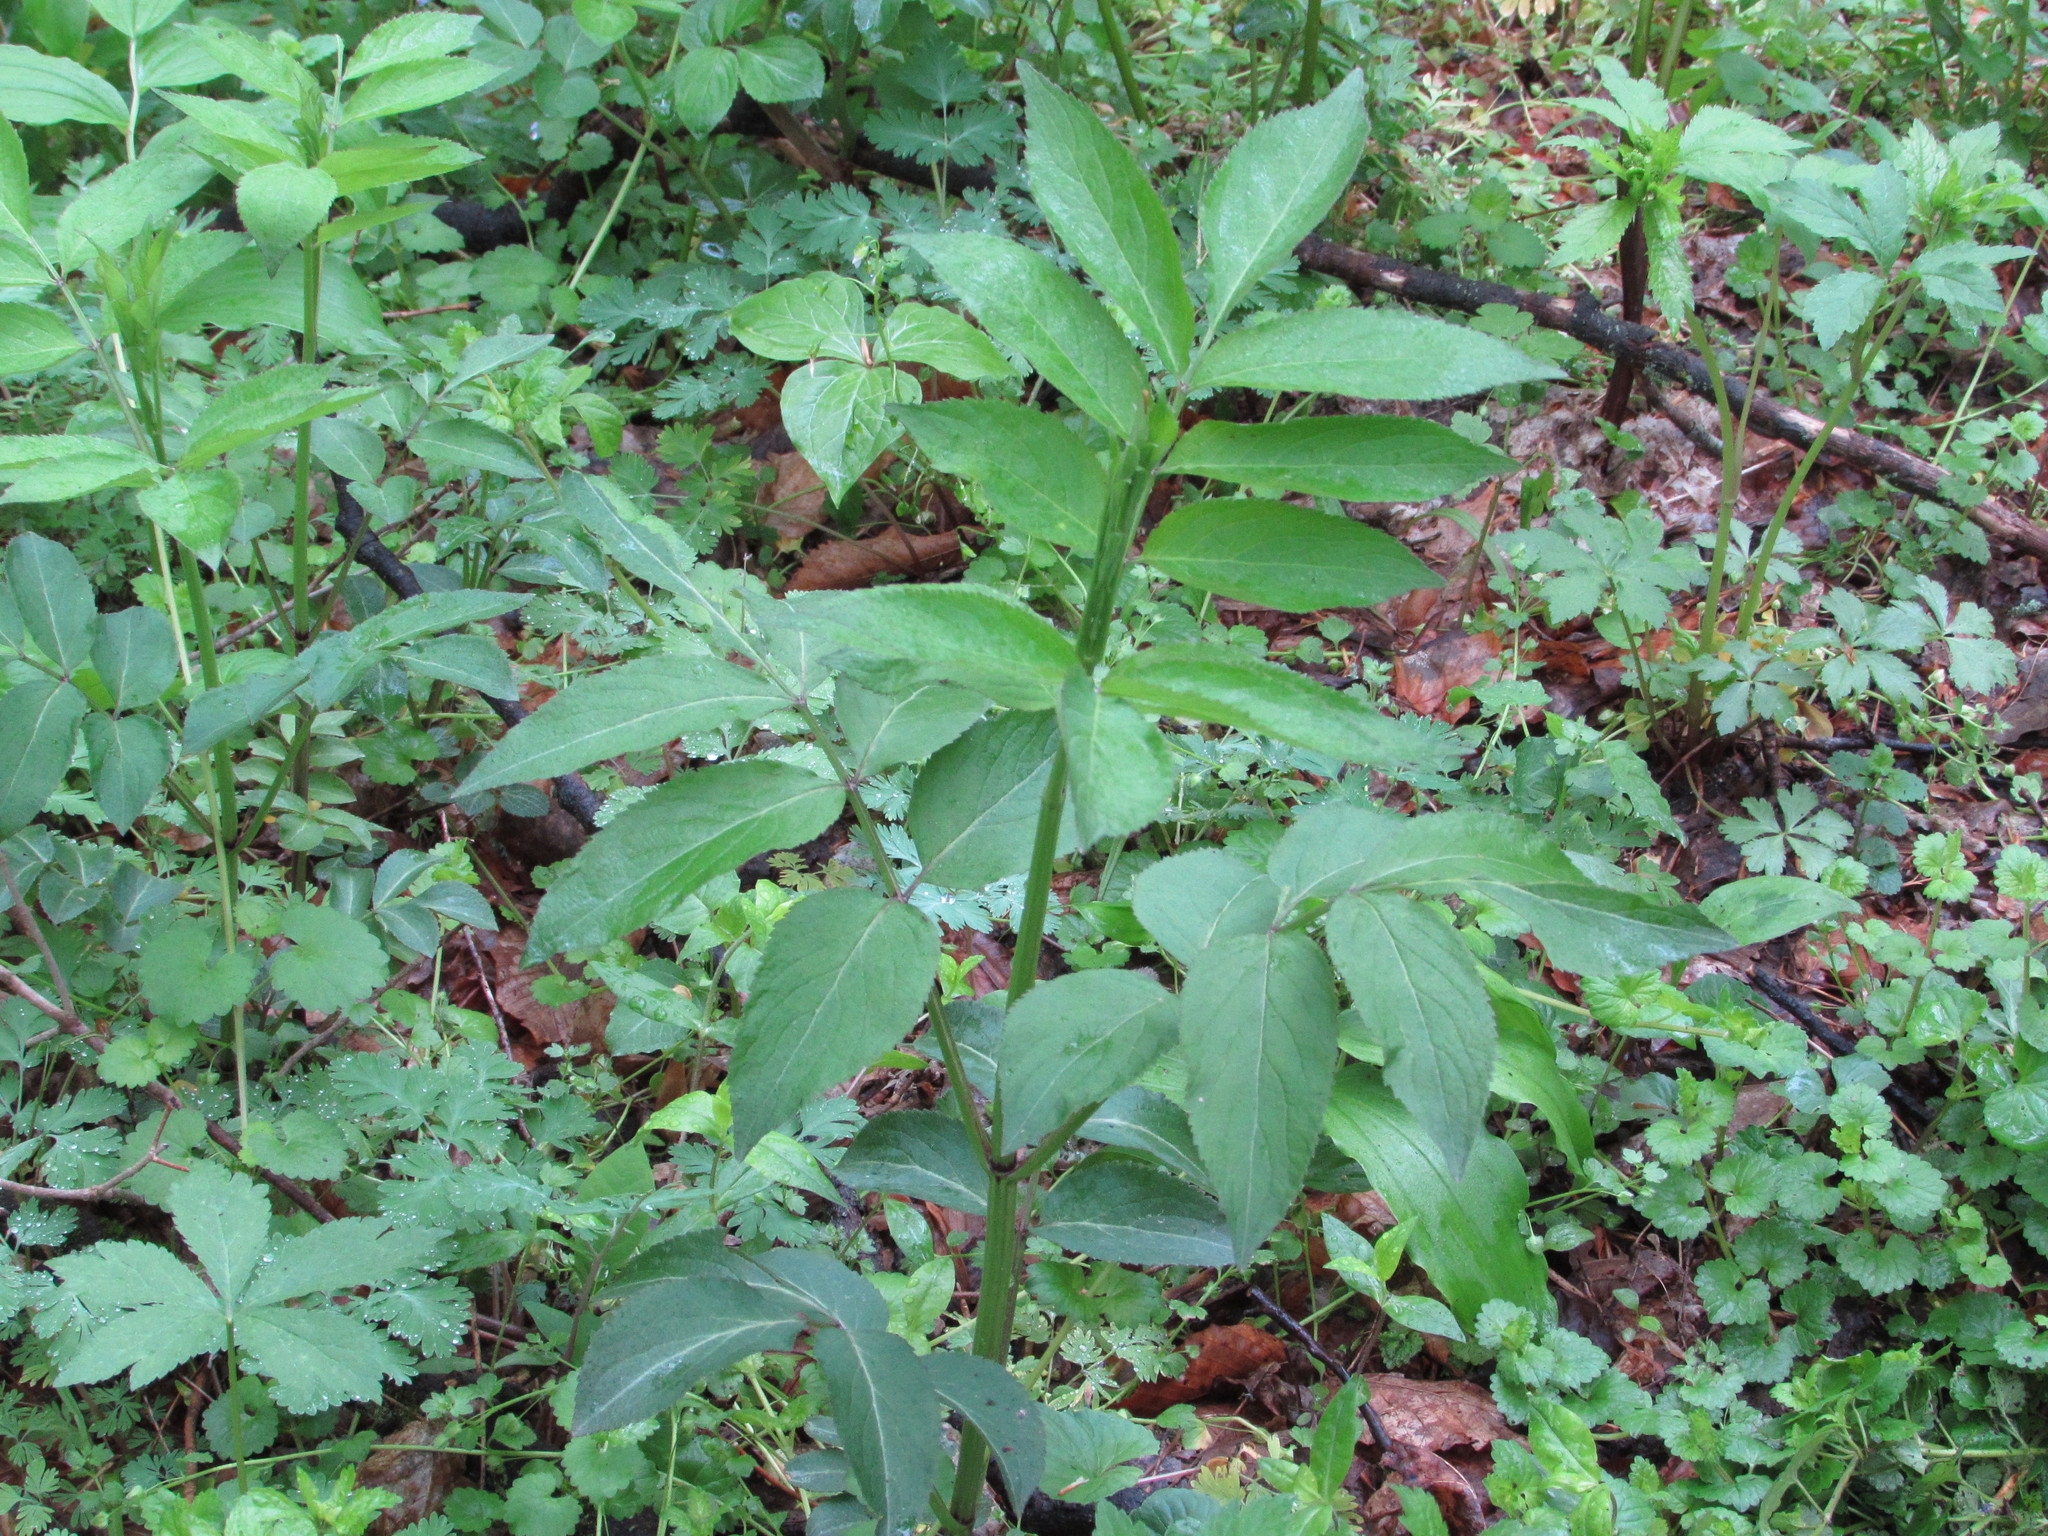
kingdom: Plantae
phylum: Tracheophyta
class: Magnoliopsida
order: Dipsacales
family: Viburnaceae
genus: Sambucus
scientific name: Sambucus canadensis
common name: American elder
